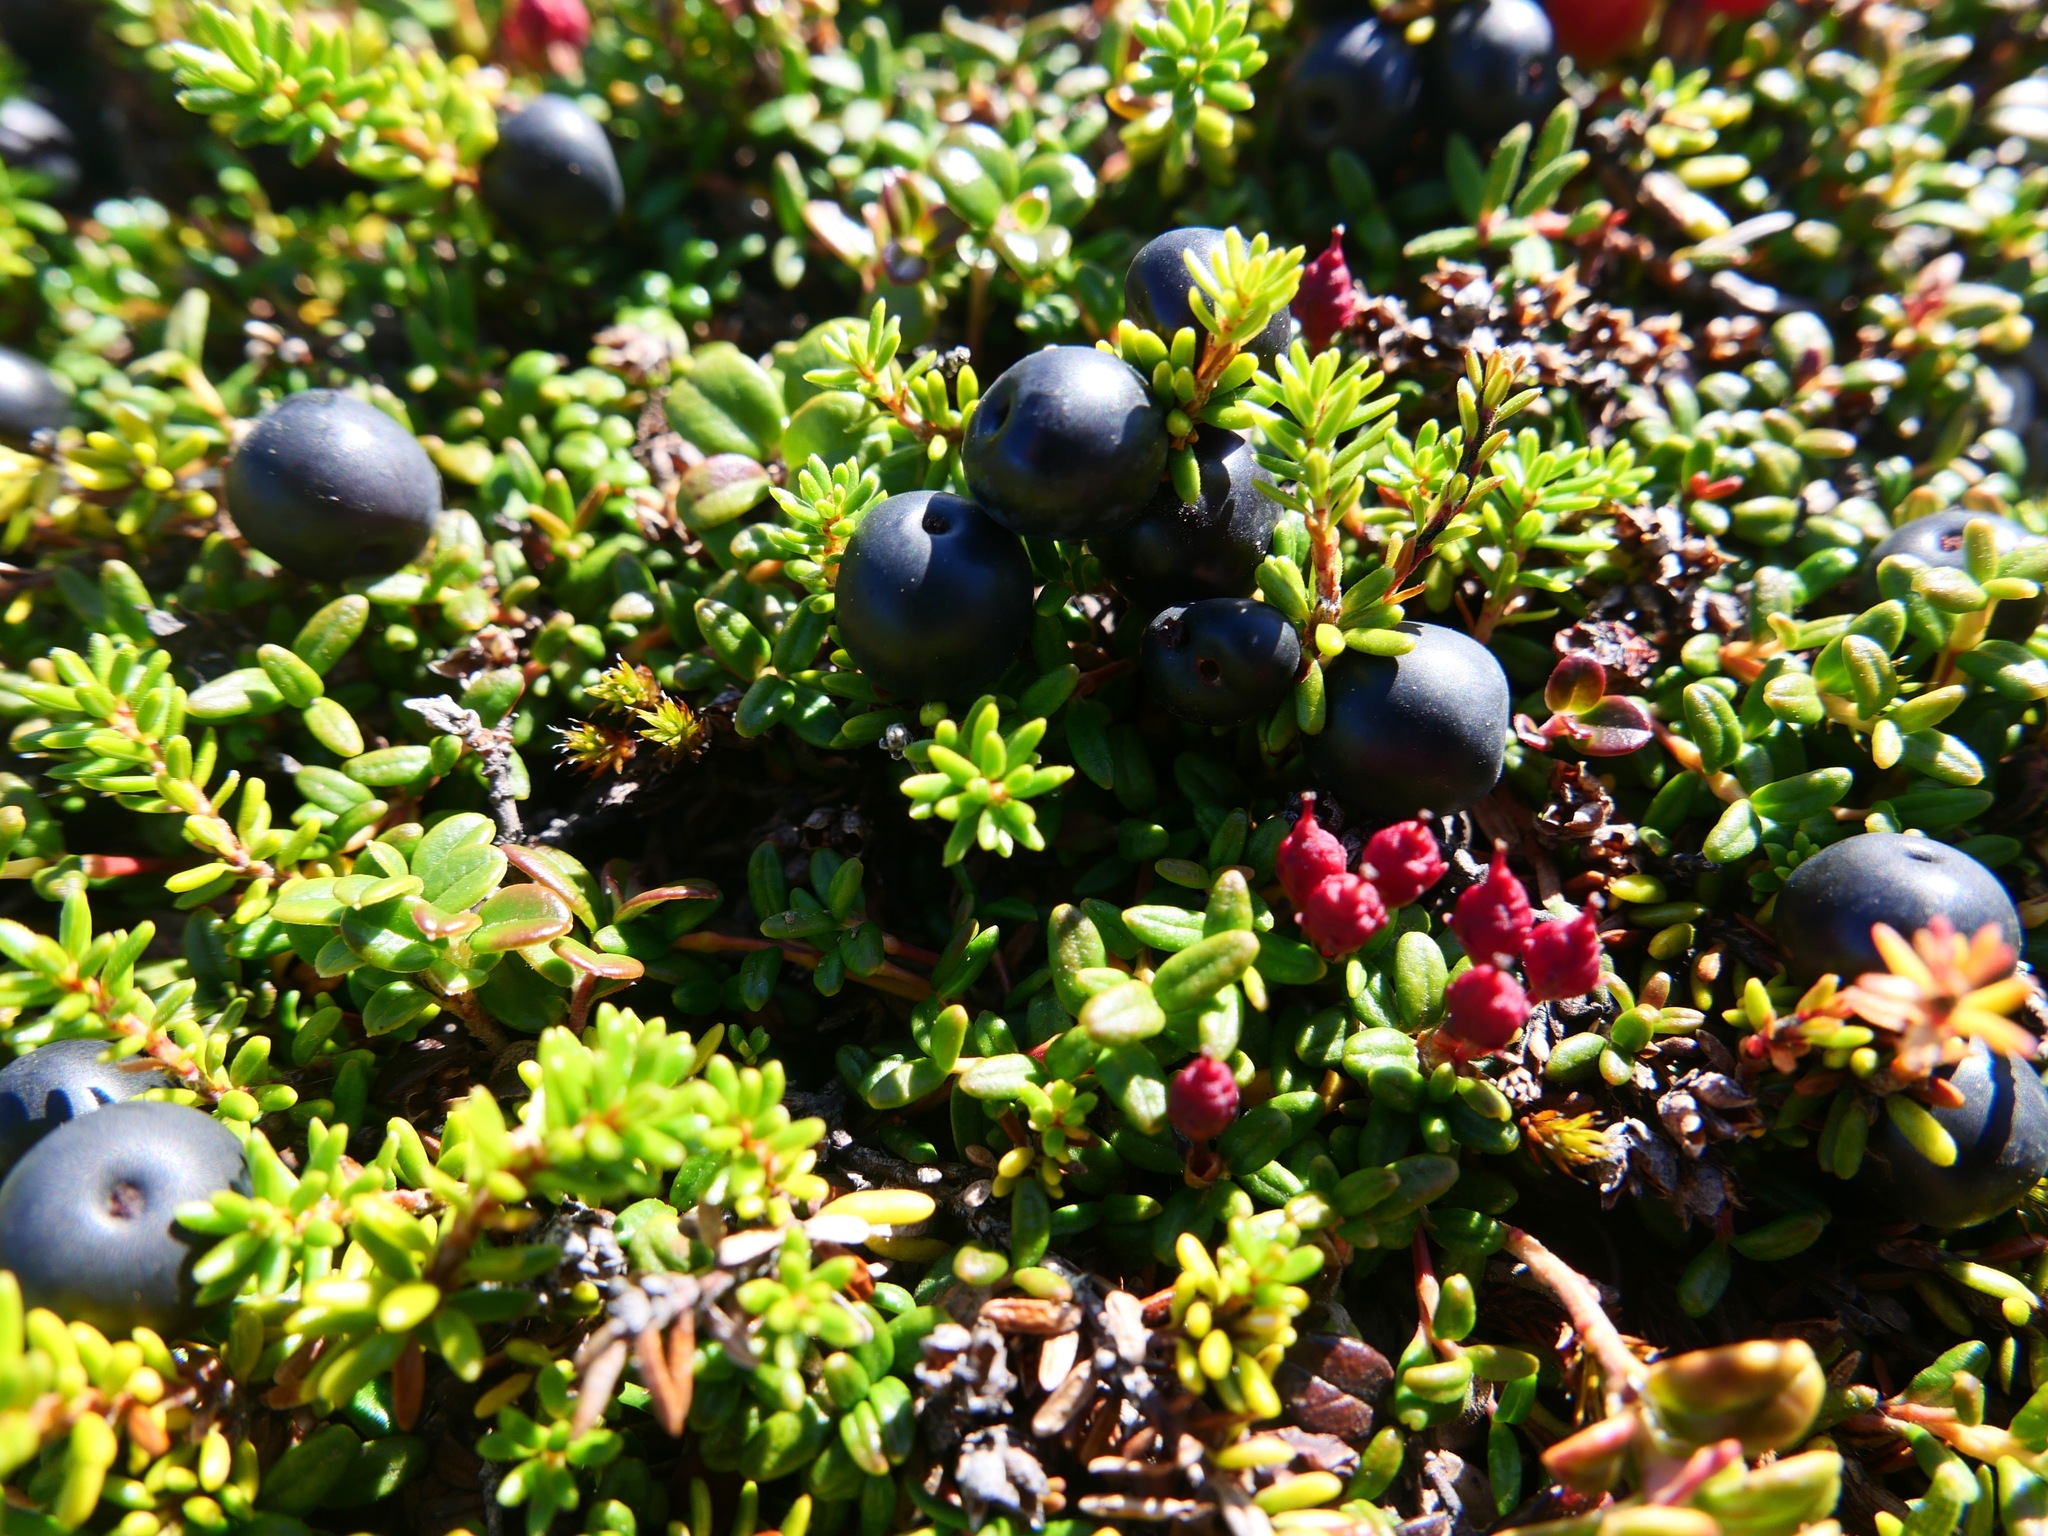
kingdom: Plantae
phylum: Tracheophyta
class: Magnoliopsida
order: Ericales
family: Ericaceae
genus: Empetrum
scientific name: Empetrum nigrum
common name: Black crowberry
